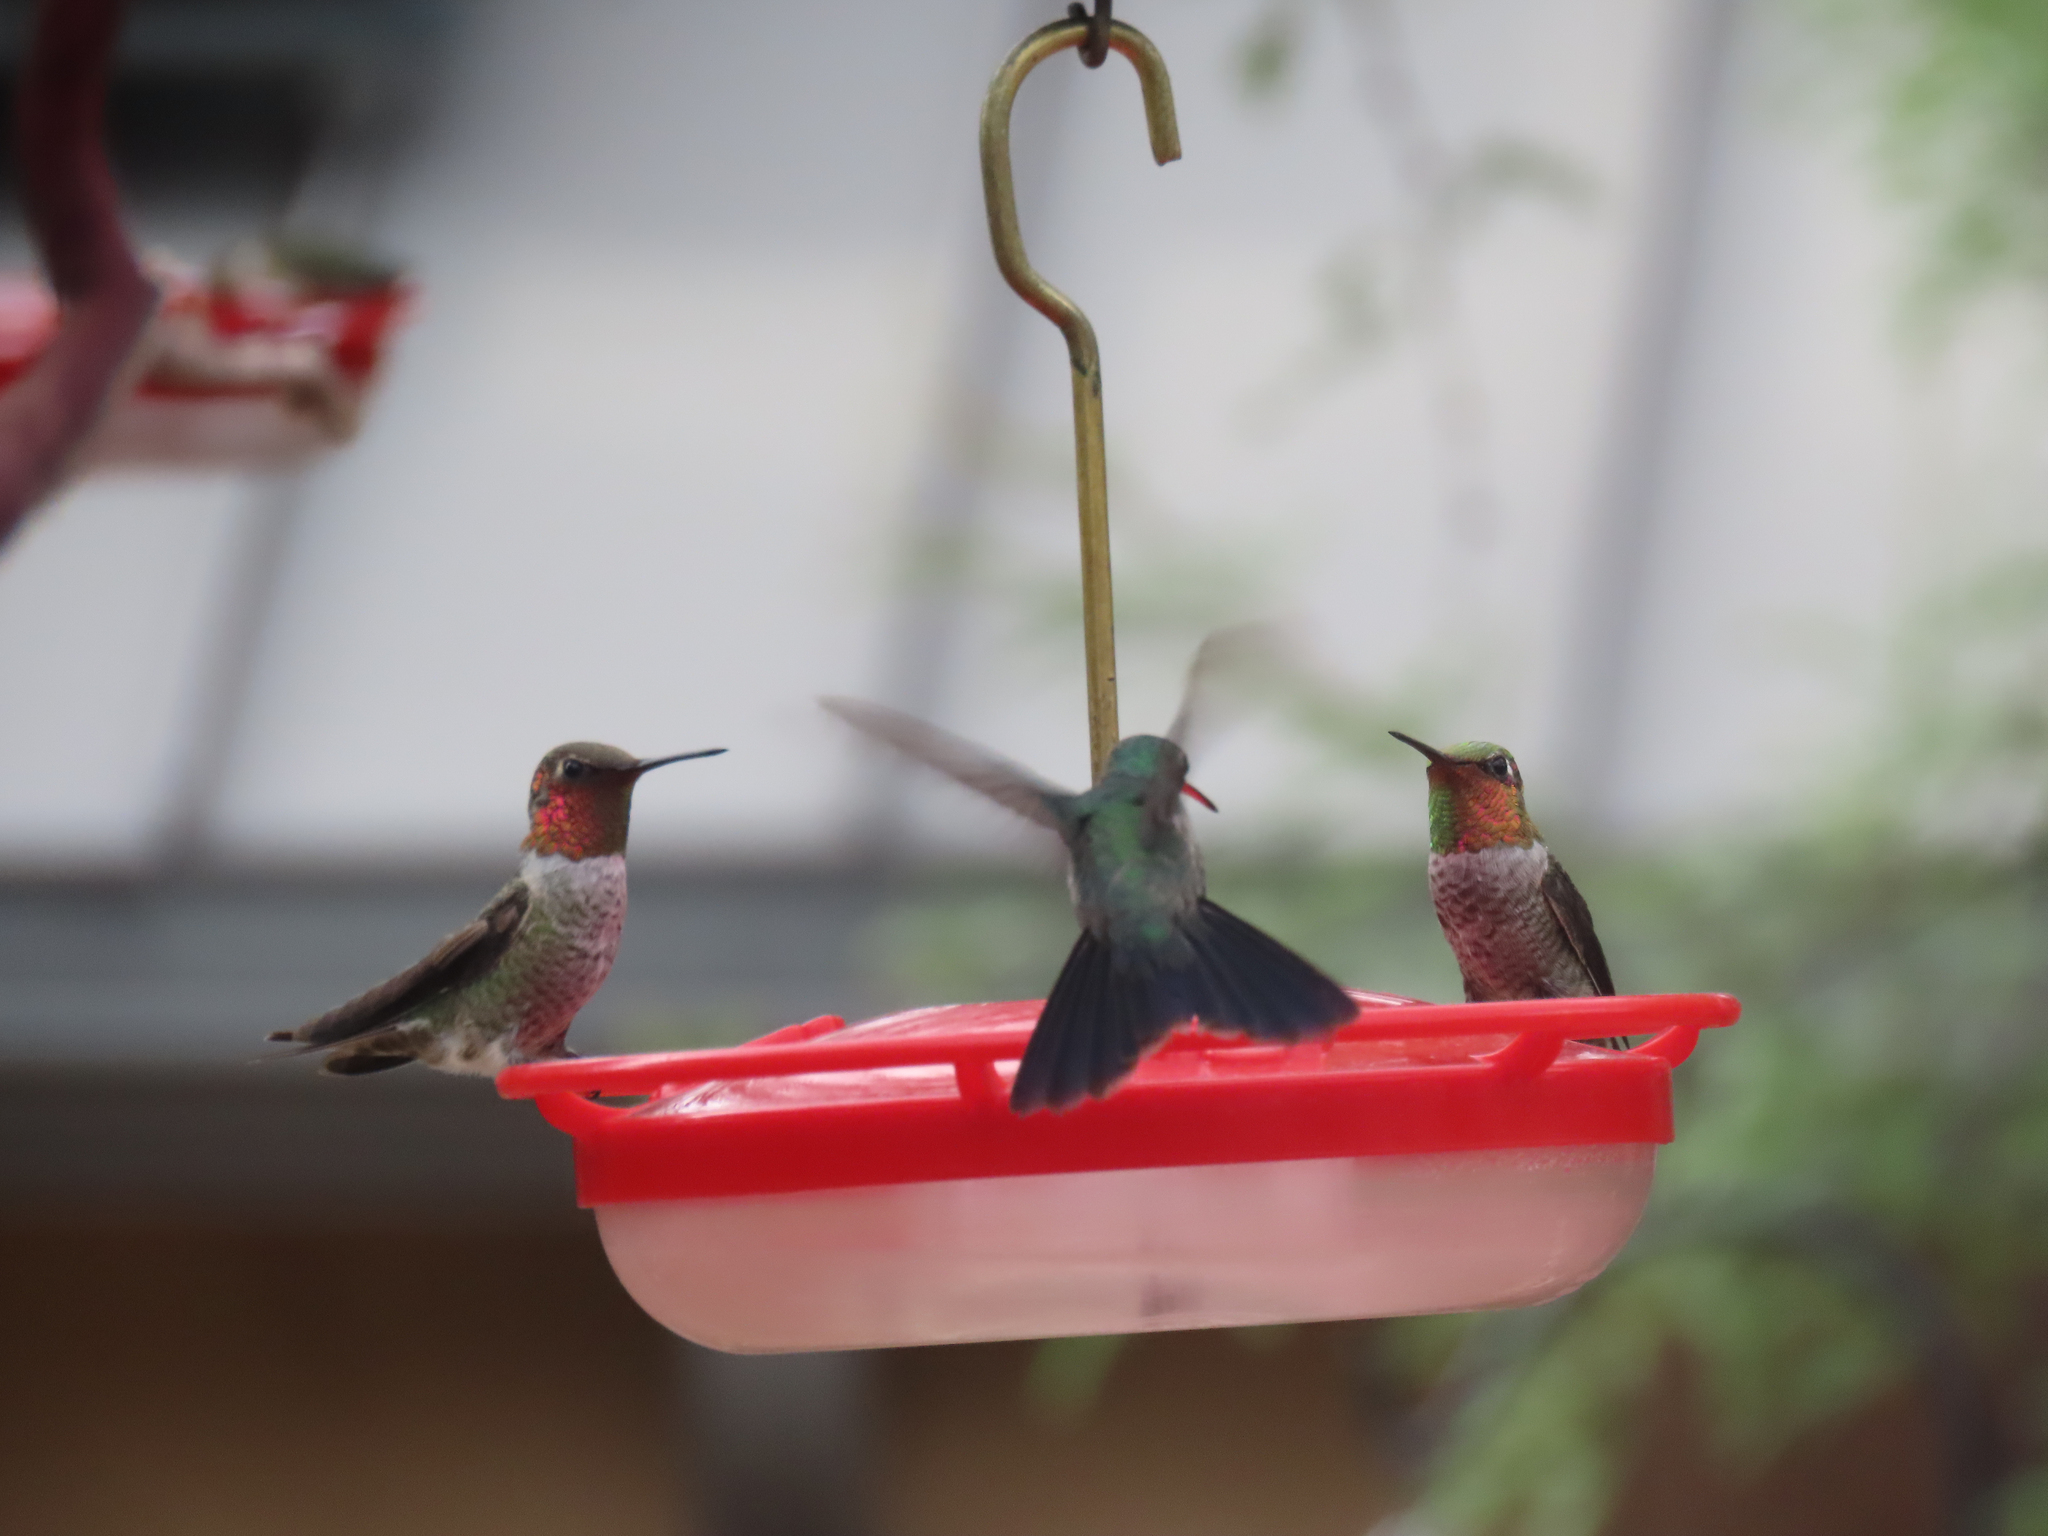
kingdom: Animalia
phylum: Chordata
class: Aves
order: Apodiformes
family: Trochilidae
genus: Calypte
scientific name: Calypte anna
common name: Anna's hummingbird
